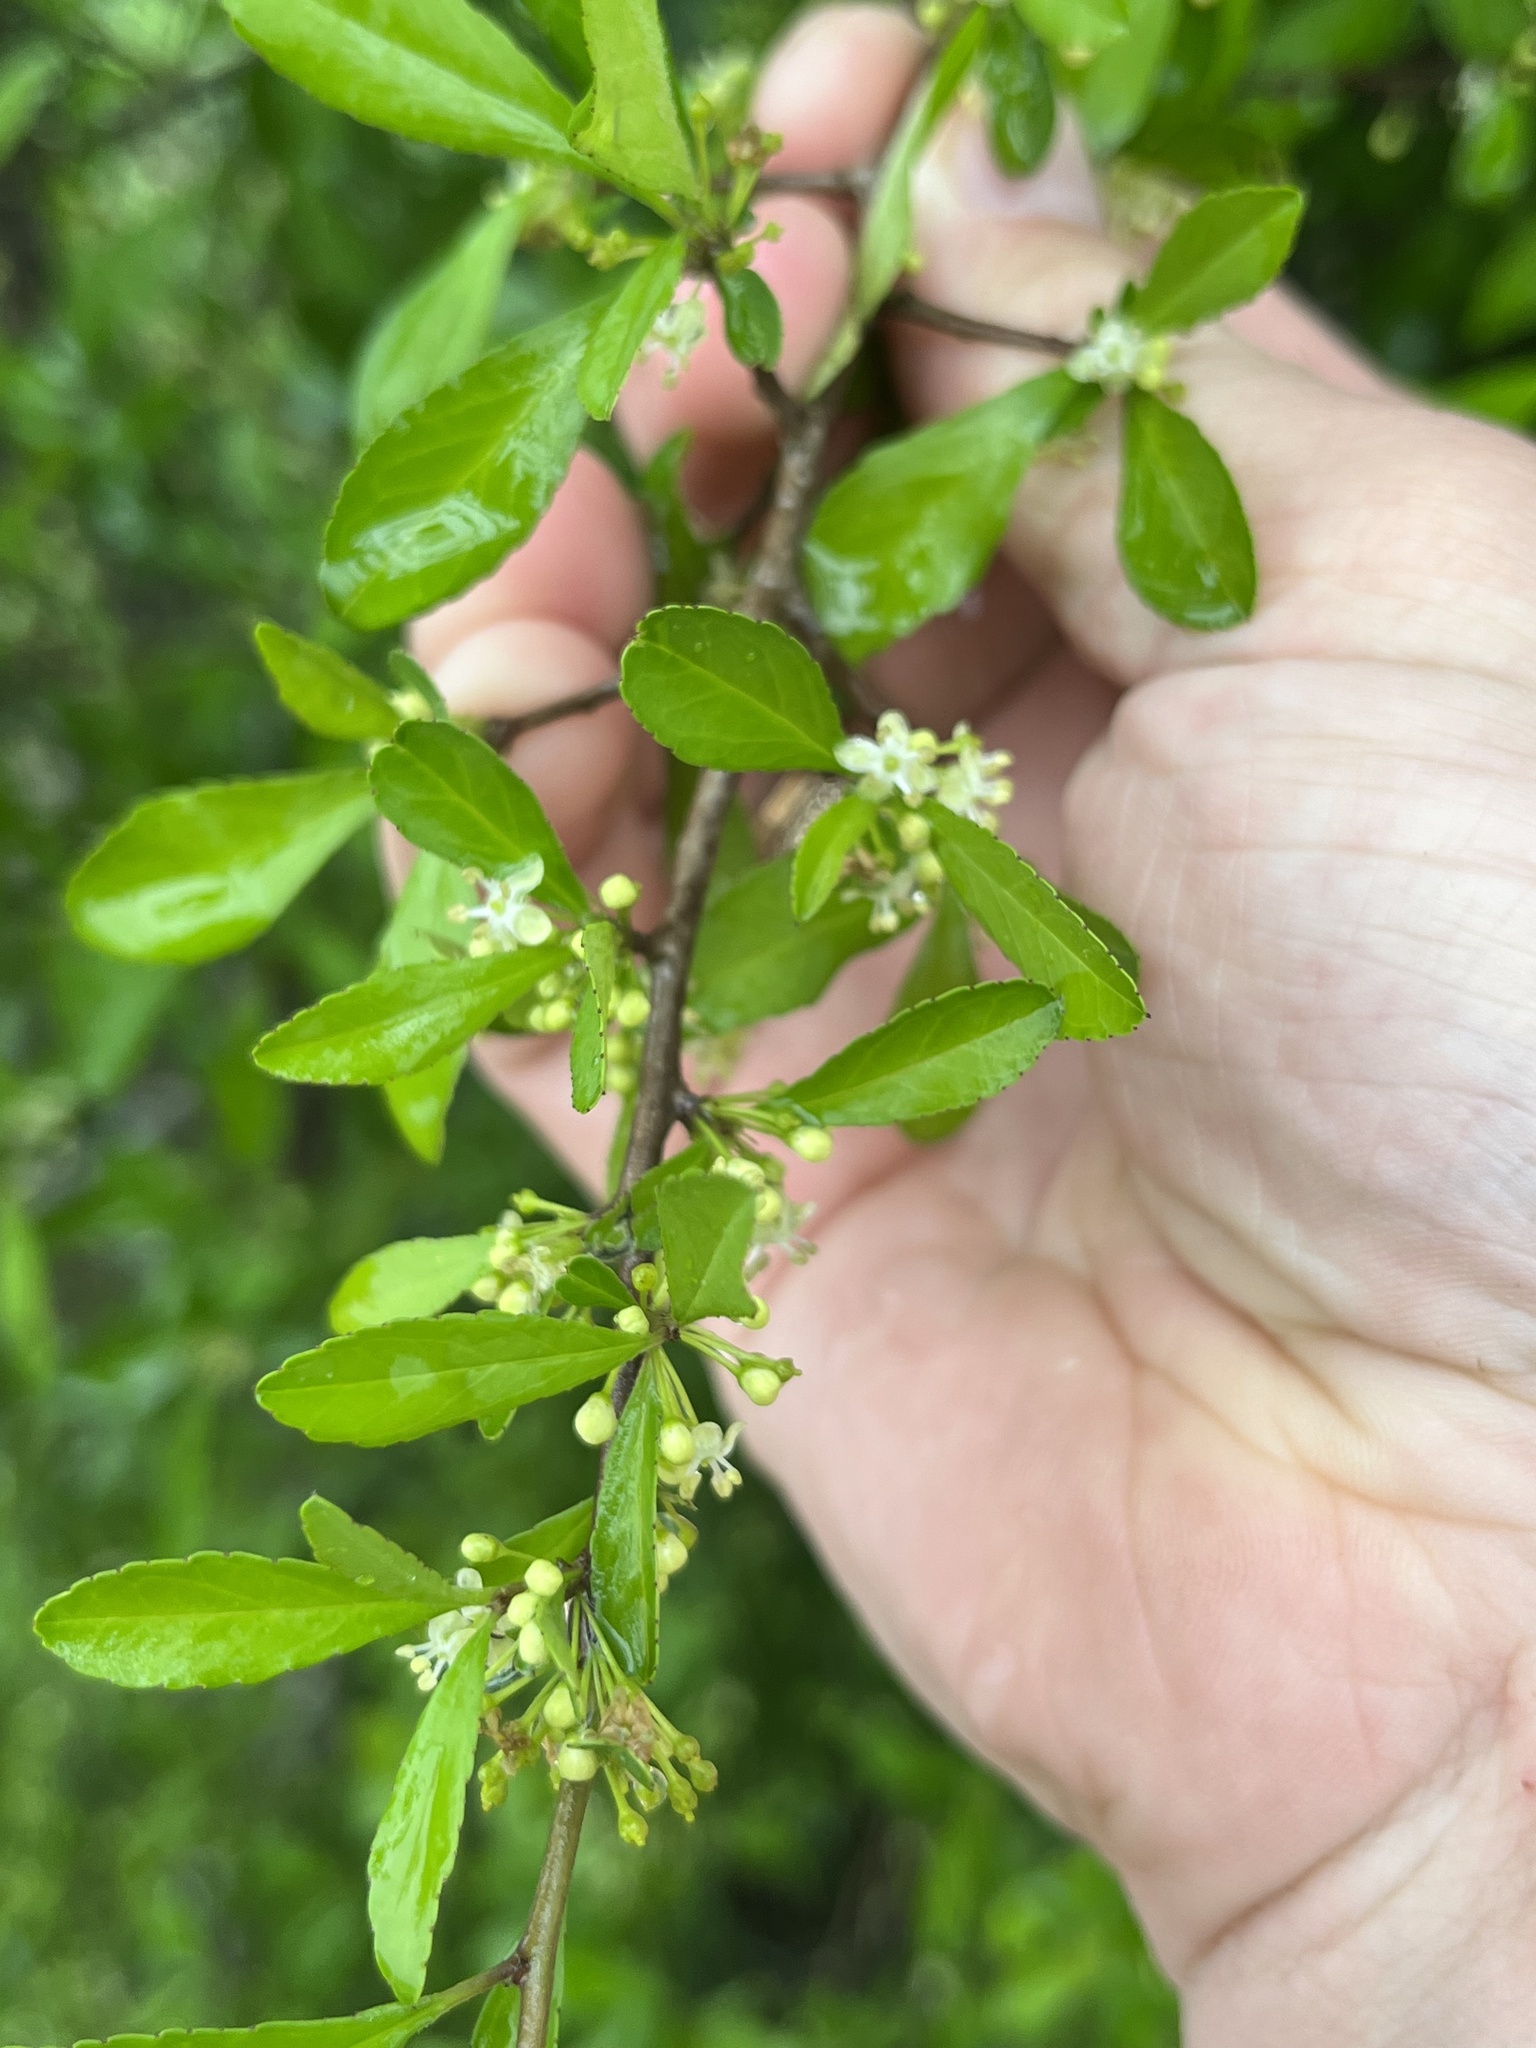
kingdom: Plantae
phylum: Tracheophyta
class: Magnoliopsida
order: Aquifoliales
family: Aquifoliaceae
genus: Ilex
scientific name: Ilex decidua
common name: Possum-haw
